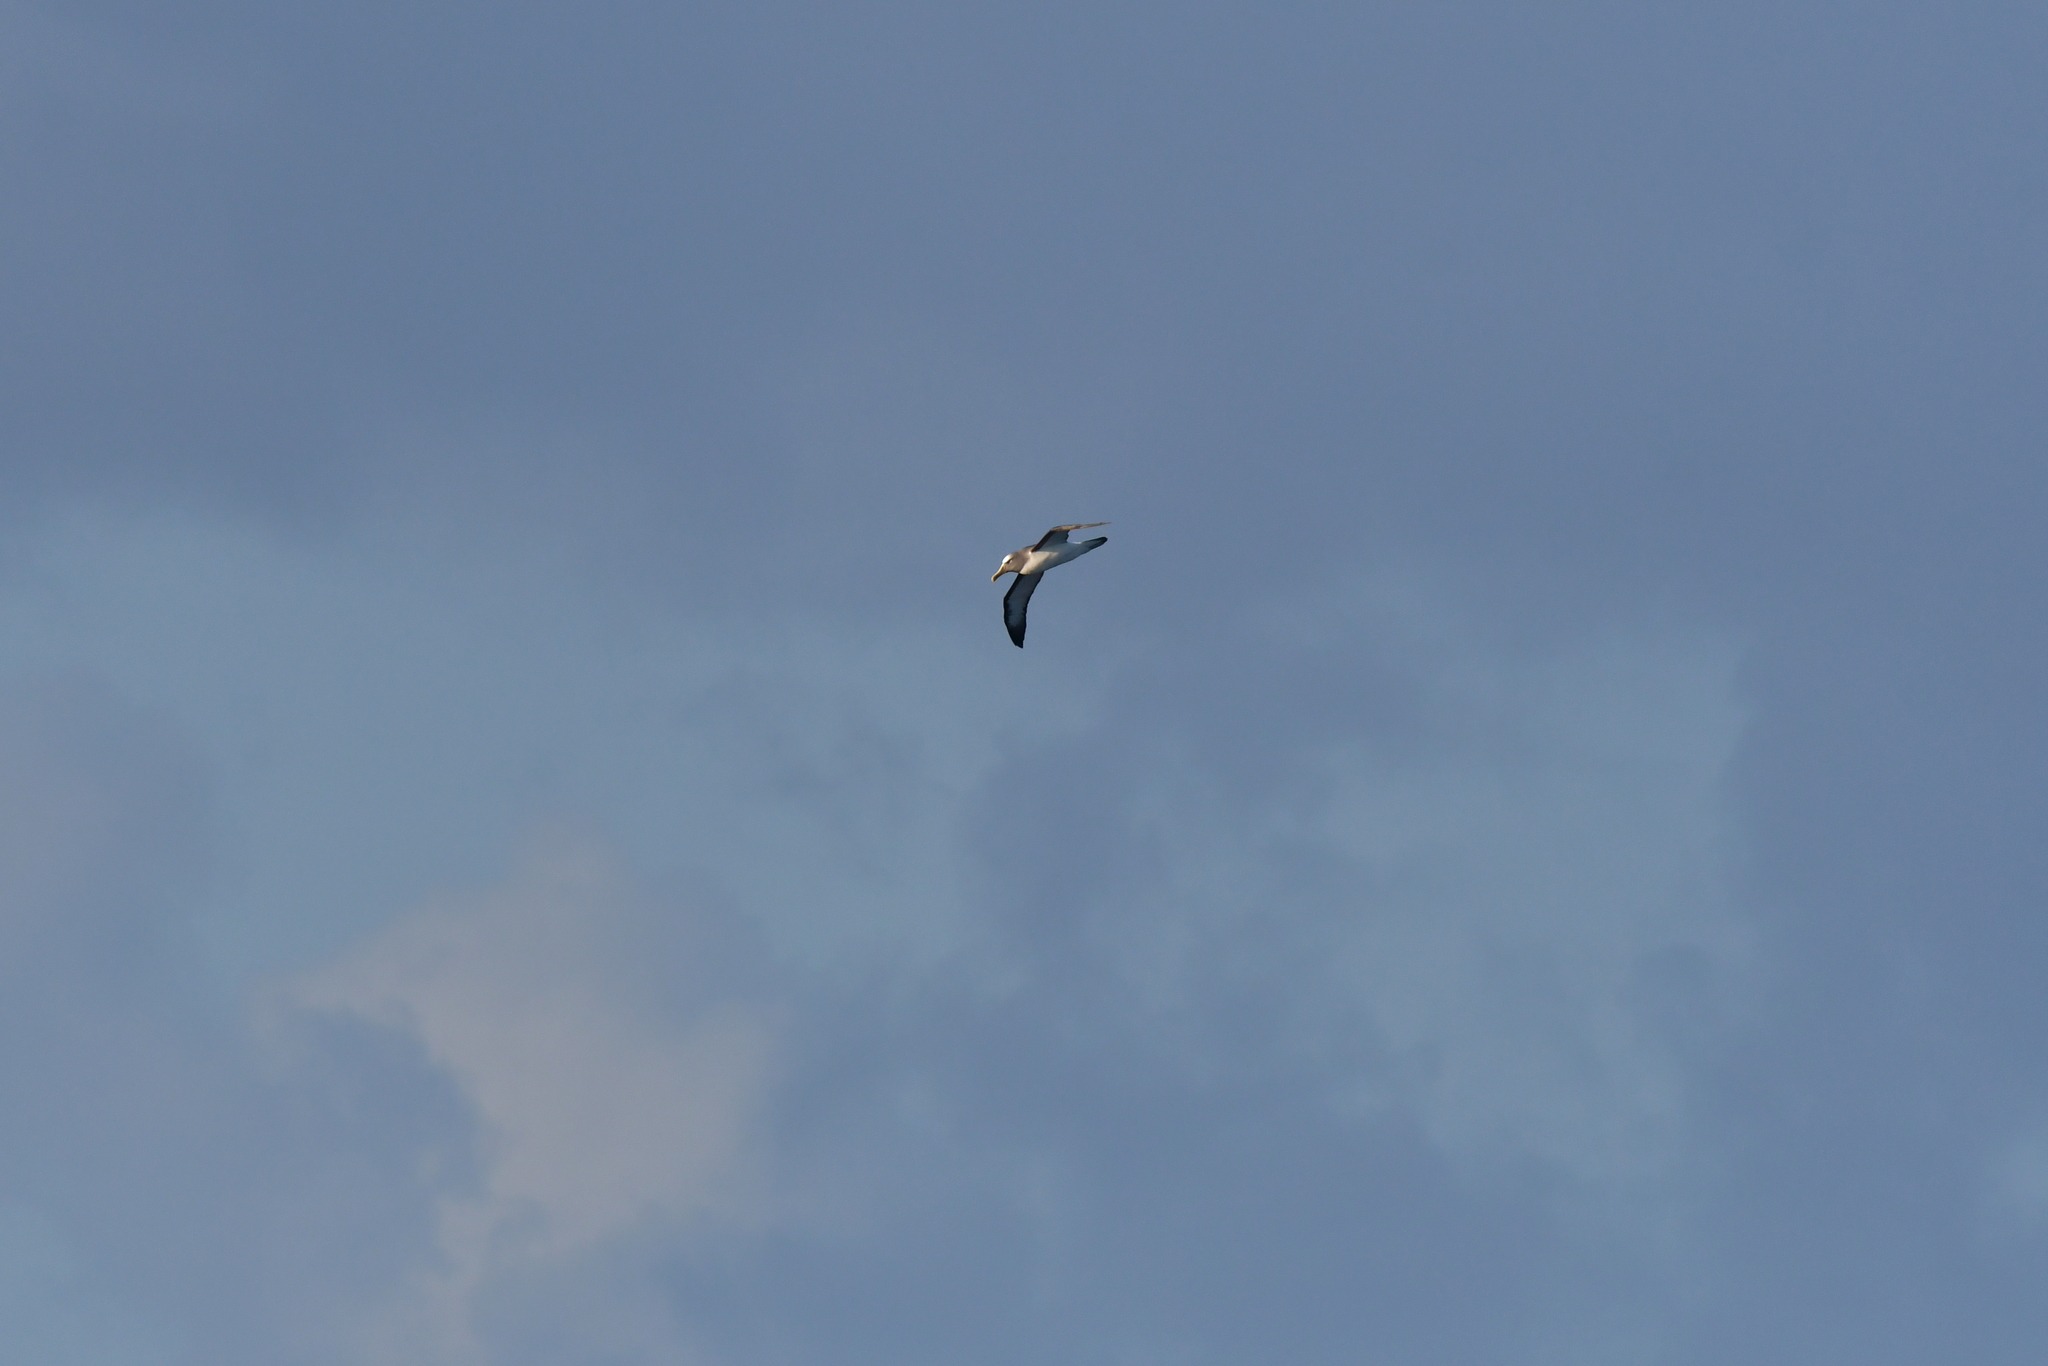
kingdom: Animalia
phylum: Chordata
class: Aves
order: Procellariiformes
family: Diomedeidae
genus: Thalassarche
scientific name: Thalassarche bulleri
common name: Buller's albatross
